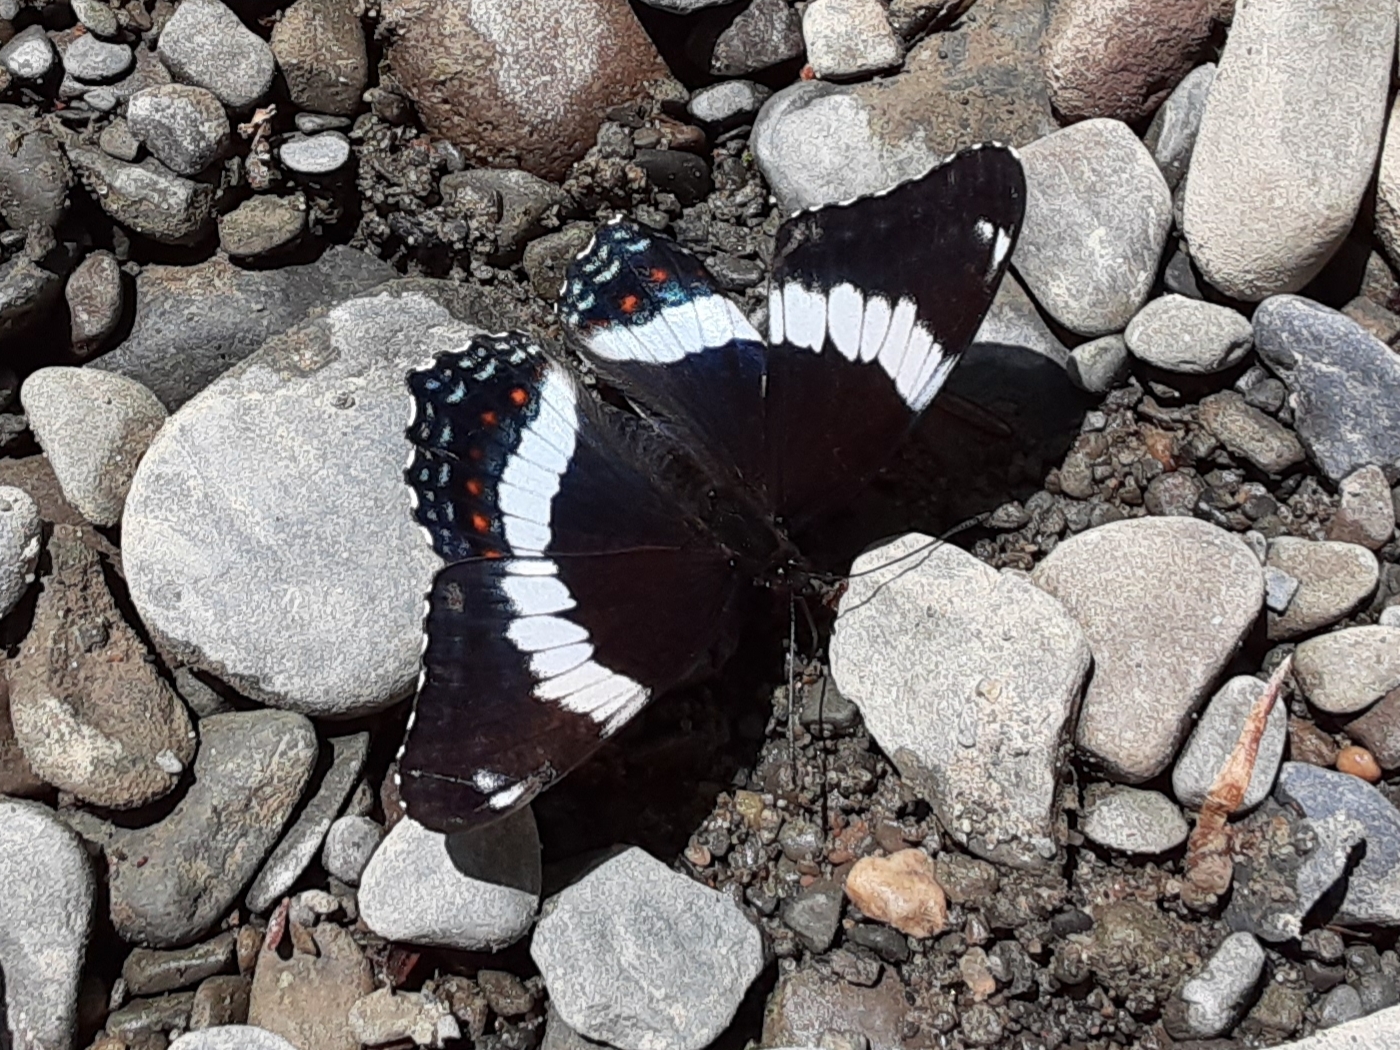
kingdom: Animalia
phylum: Arthropoda
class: Insecta
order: Lepidoptera
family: Nymphalidae
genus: Limenitis
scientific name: Limenitis arthemis
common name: Red-spotted admiral
